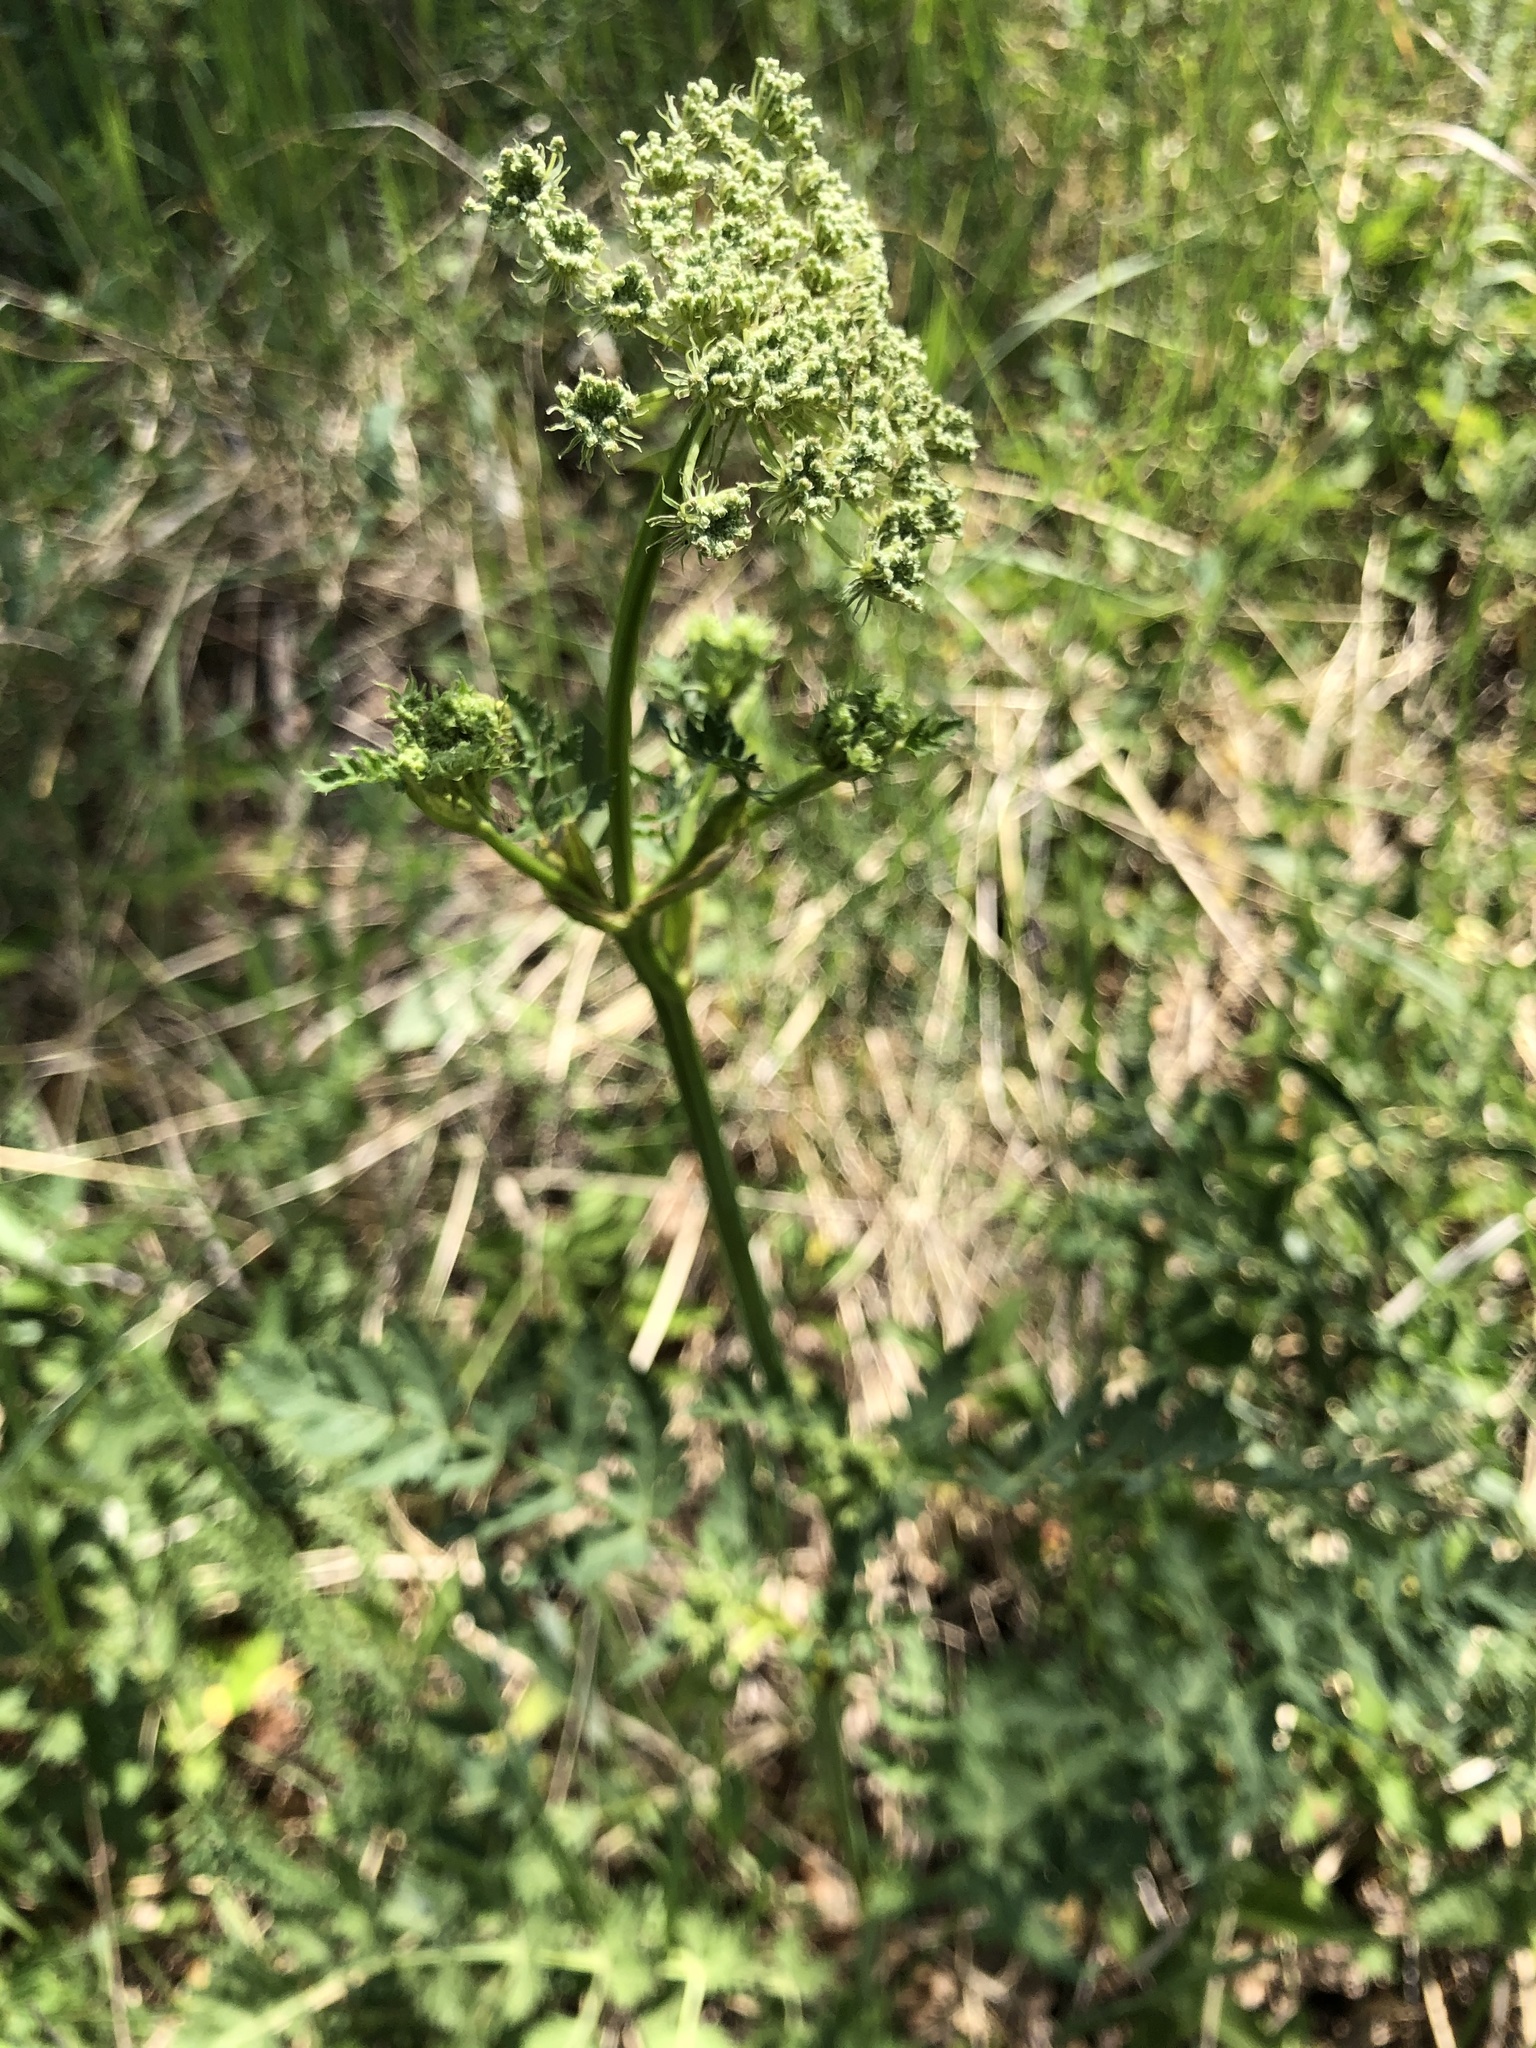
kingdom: Plantae
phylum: Tracheophyta
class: Magnoliopsida
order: Apiales
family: Apiaceae
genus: Seseli
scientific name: Seseli libanotis
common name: Mooncarrot
